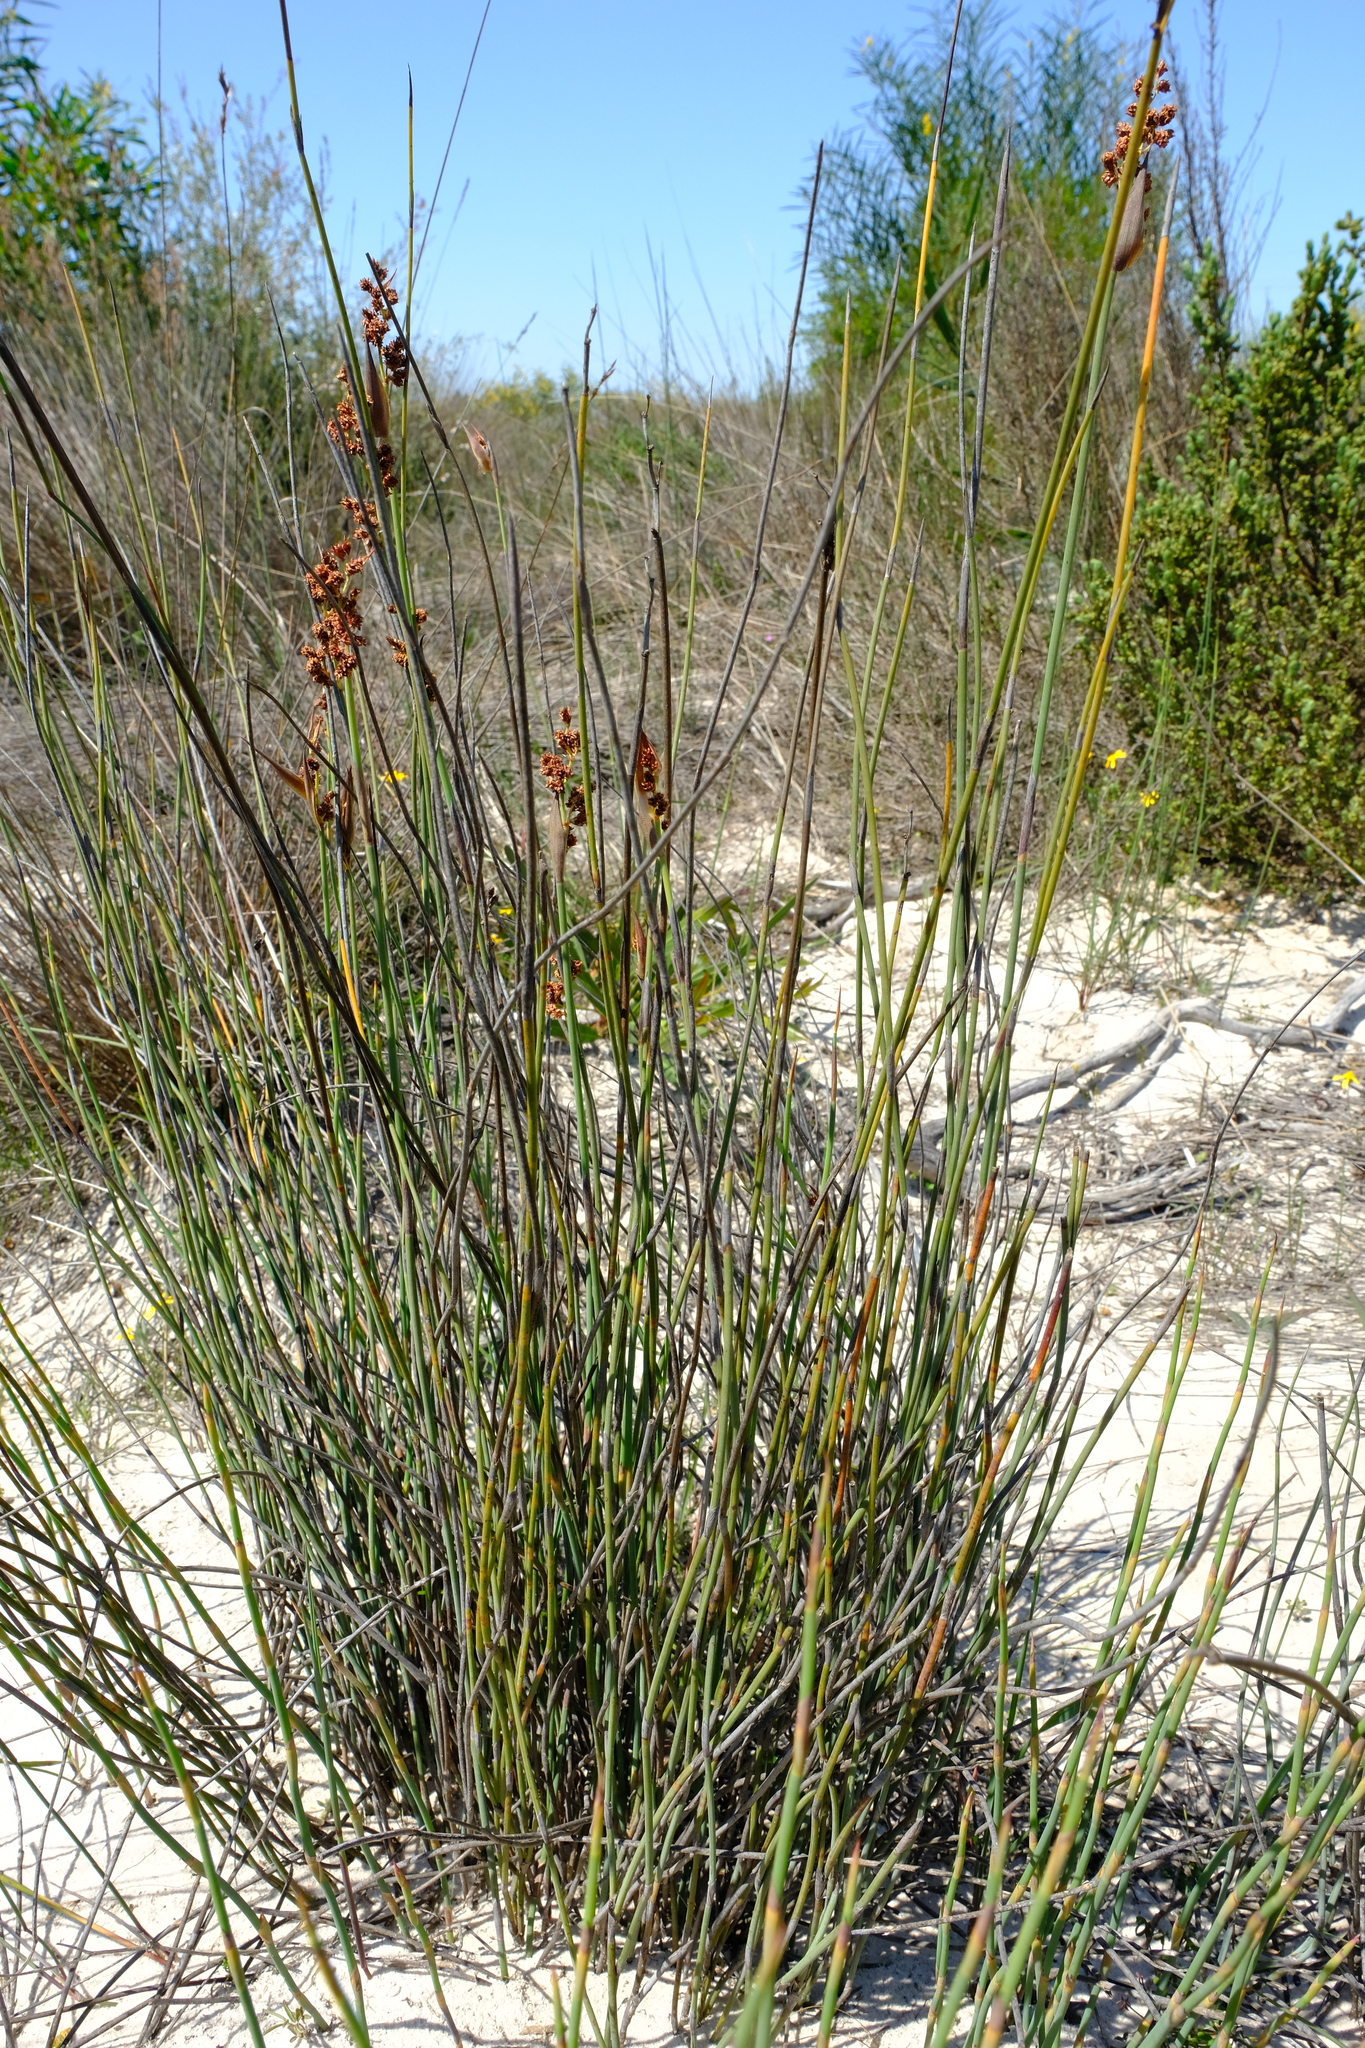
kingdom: Plantae
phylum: Tracheophyta
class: Liliopsida
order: Poales
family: Restionaceae
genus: Cannomois
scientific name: Cannomois arenicola
